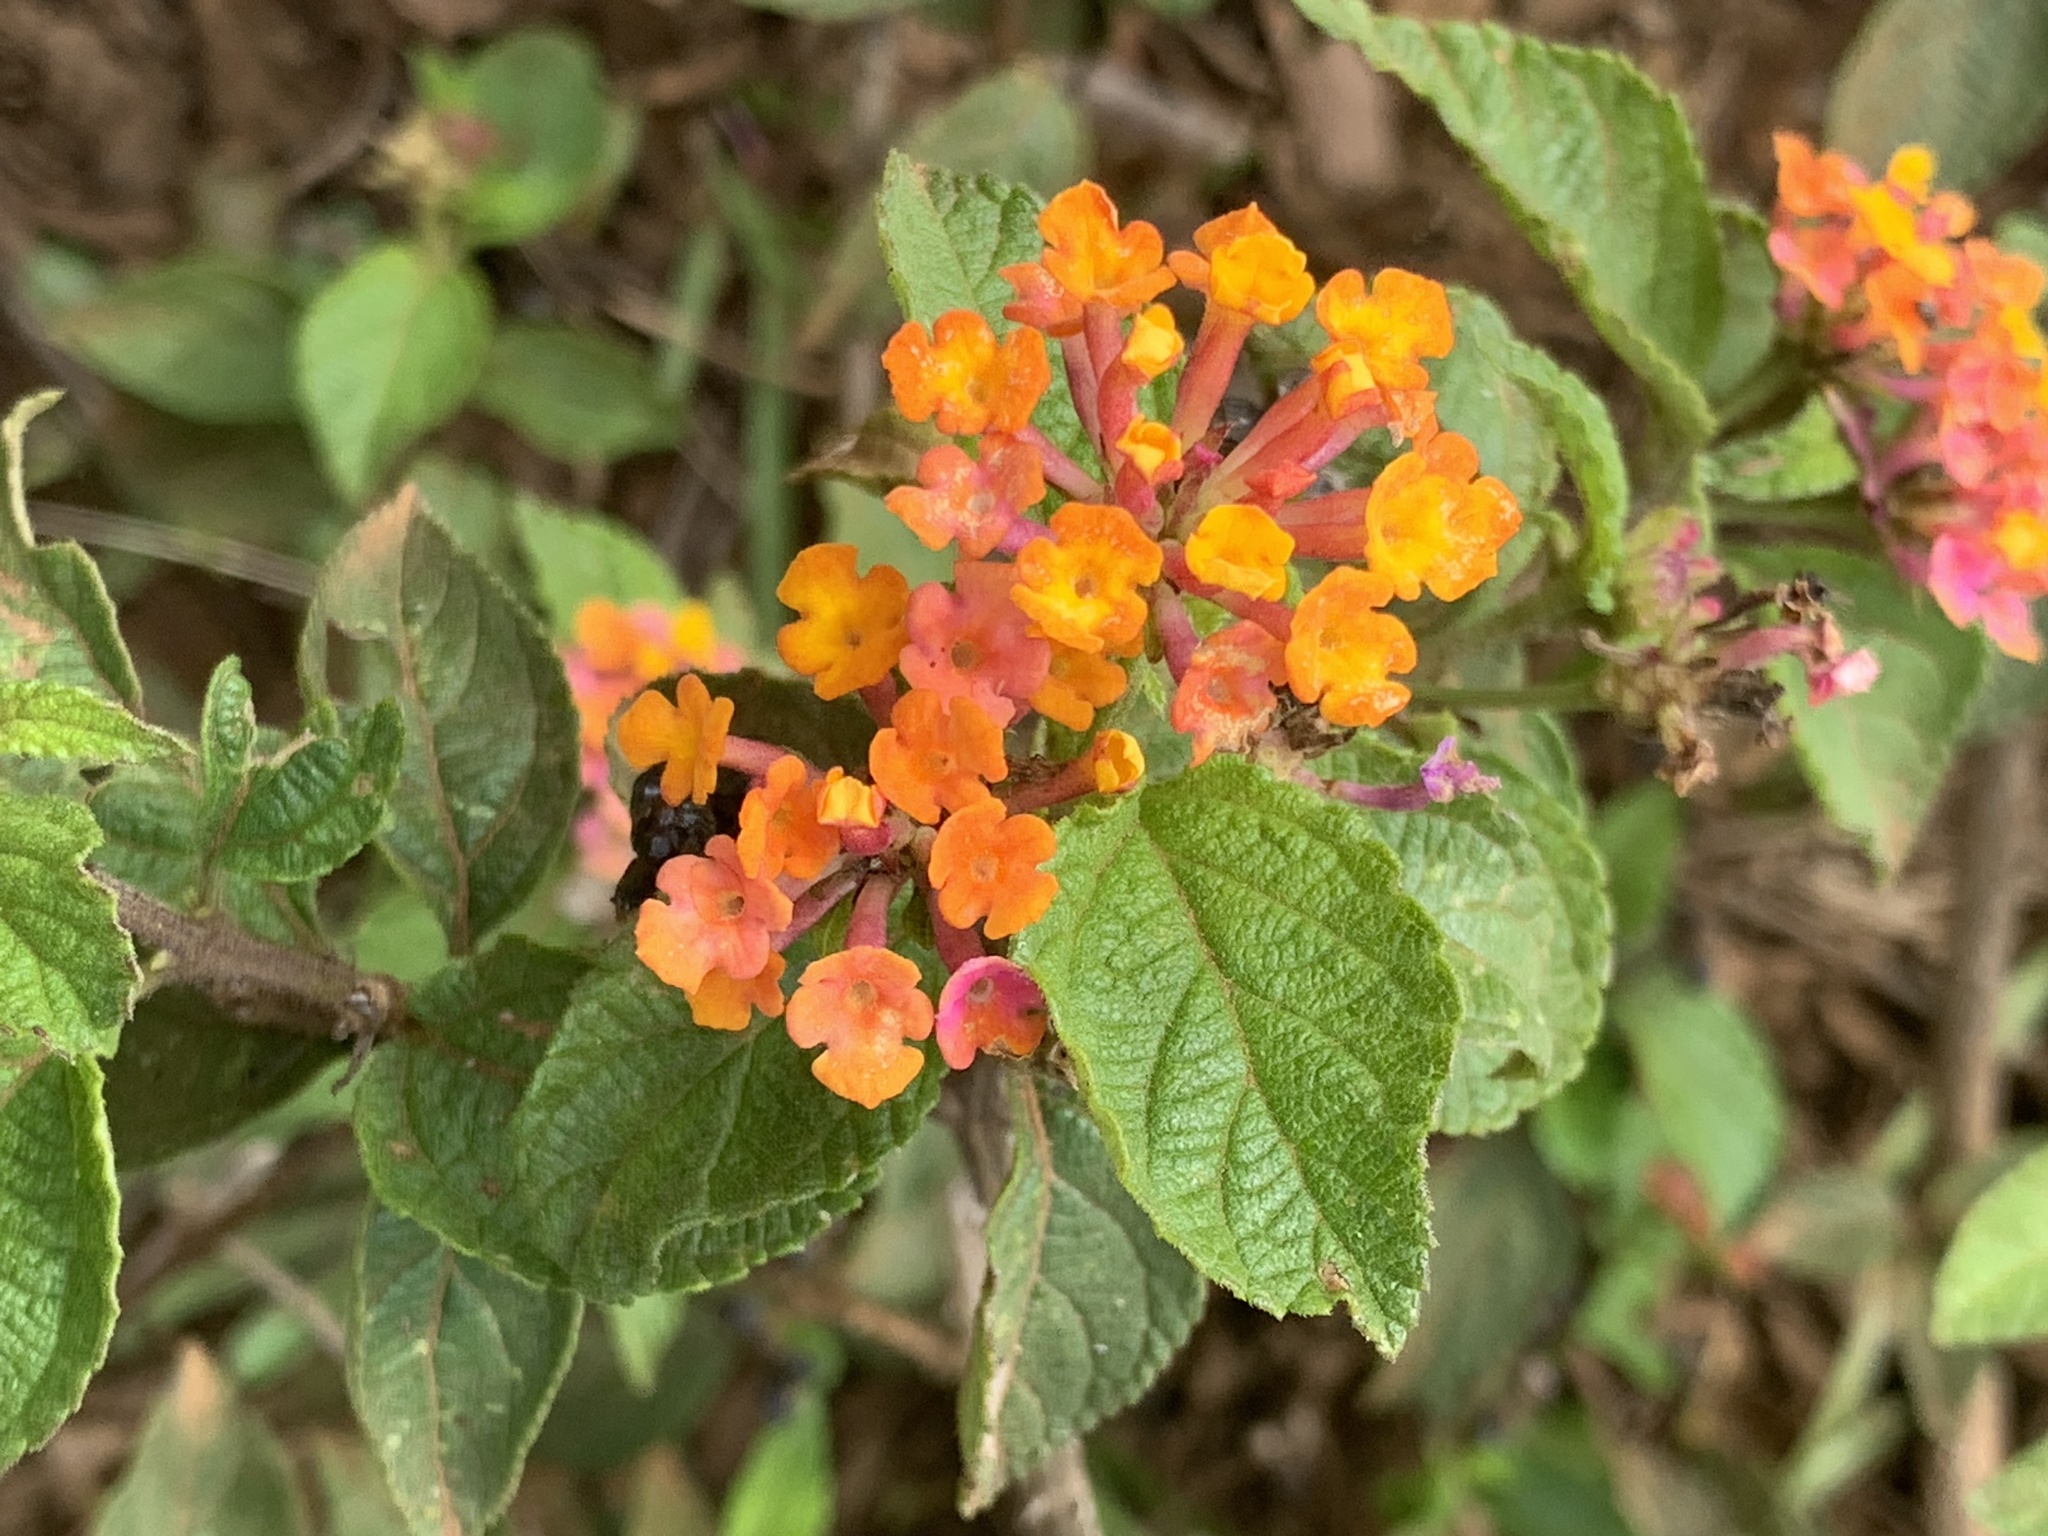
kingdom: Plantae
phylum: Tracheophyta
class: Magnoliopsida
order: Lamiales
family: Verbenaceae
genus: Lantana
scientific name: Lantana camara
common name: Lantana
